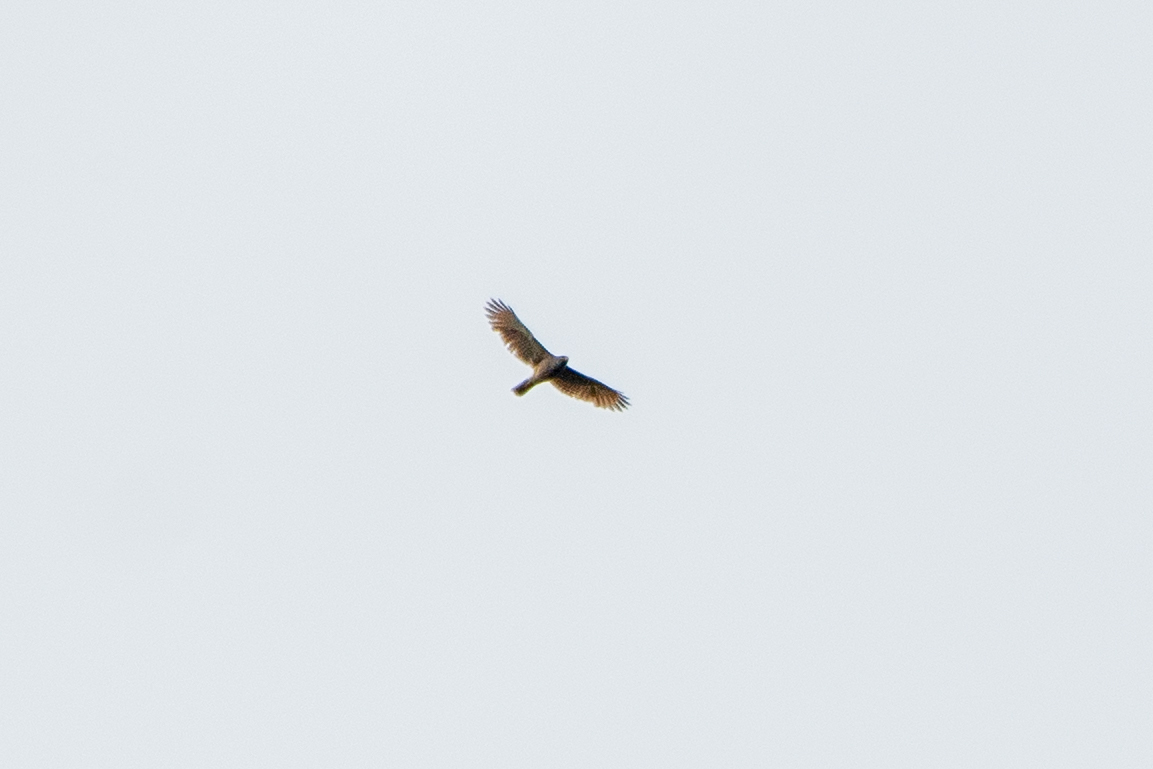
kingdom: Animalia
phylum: Chordata
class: Aves
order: Accipitriformes
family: Accipitridae
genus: Rupornis
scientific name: Rupornis magnirostris
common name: Roadside hawk
